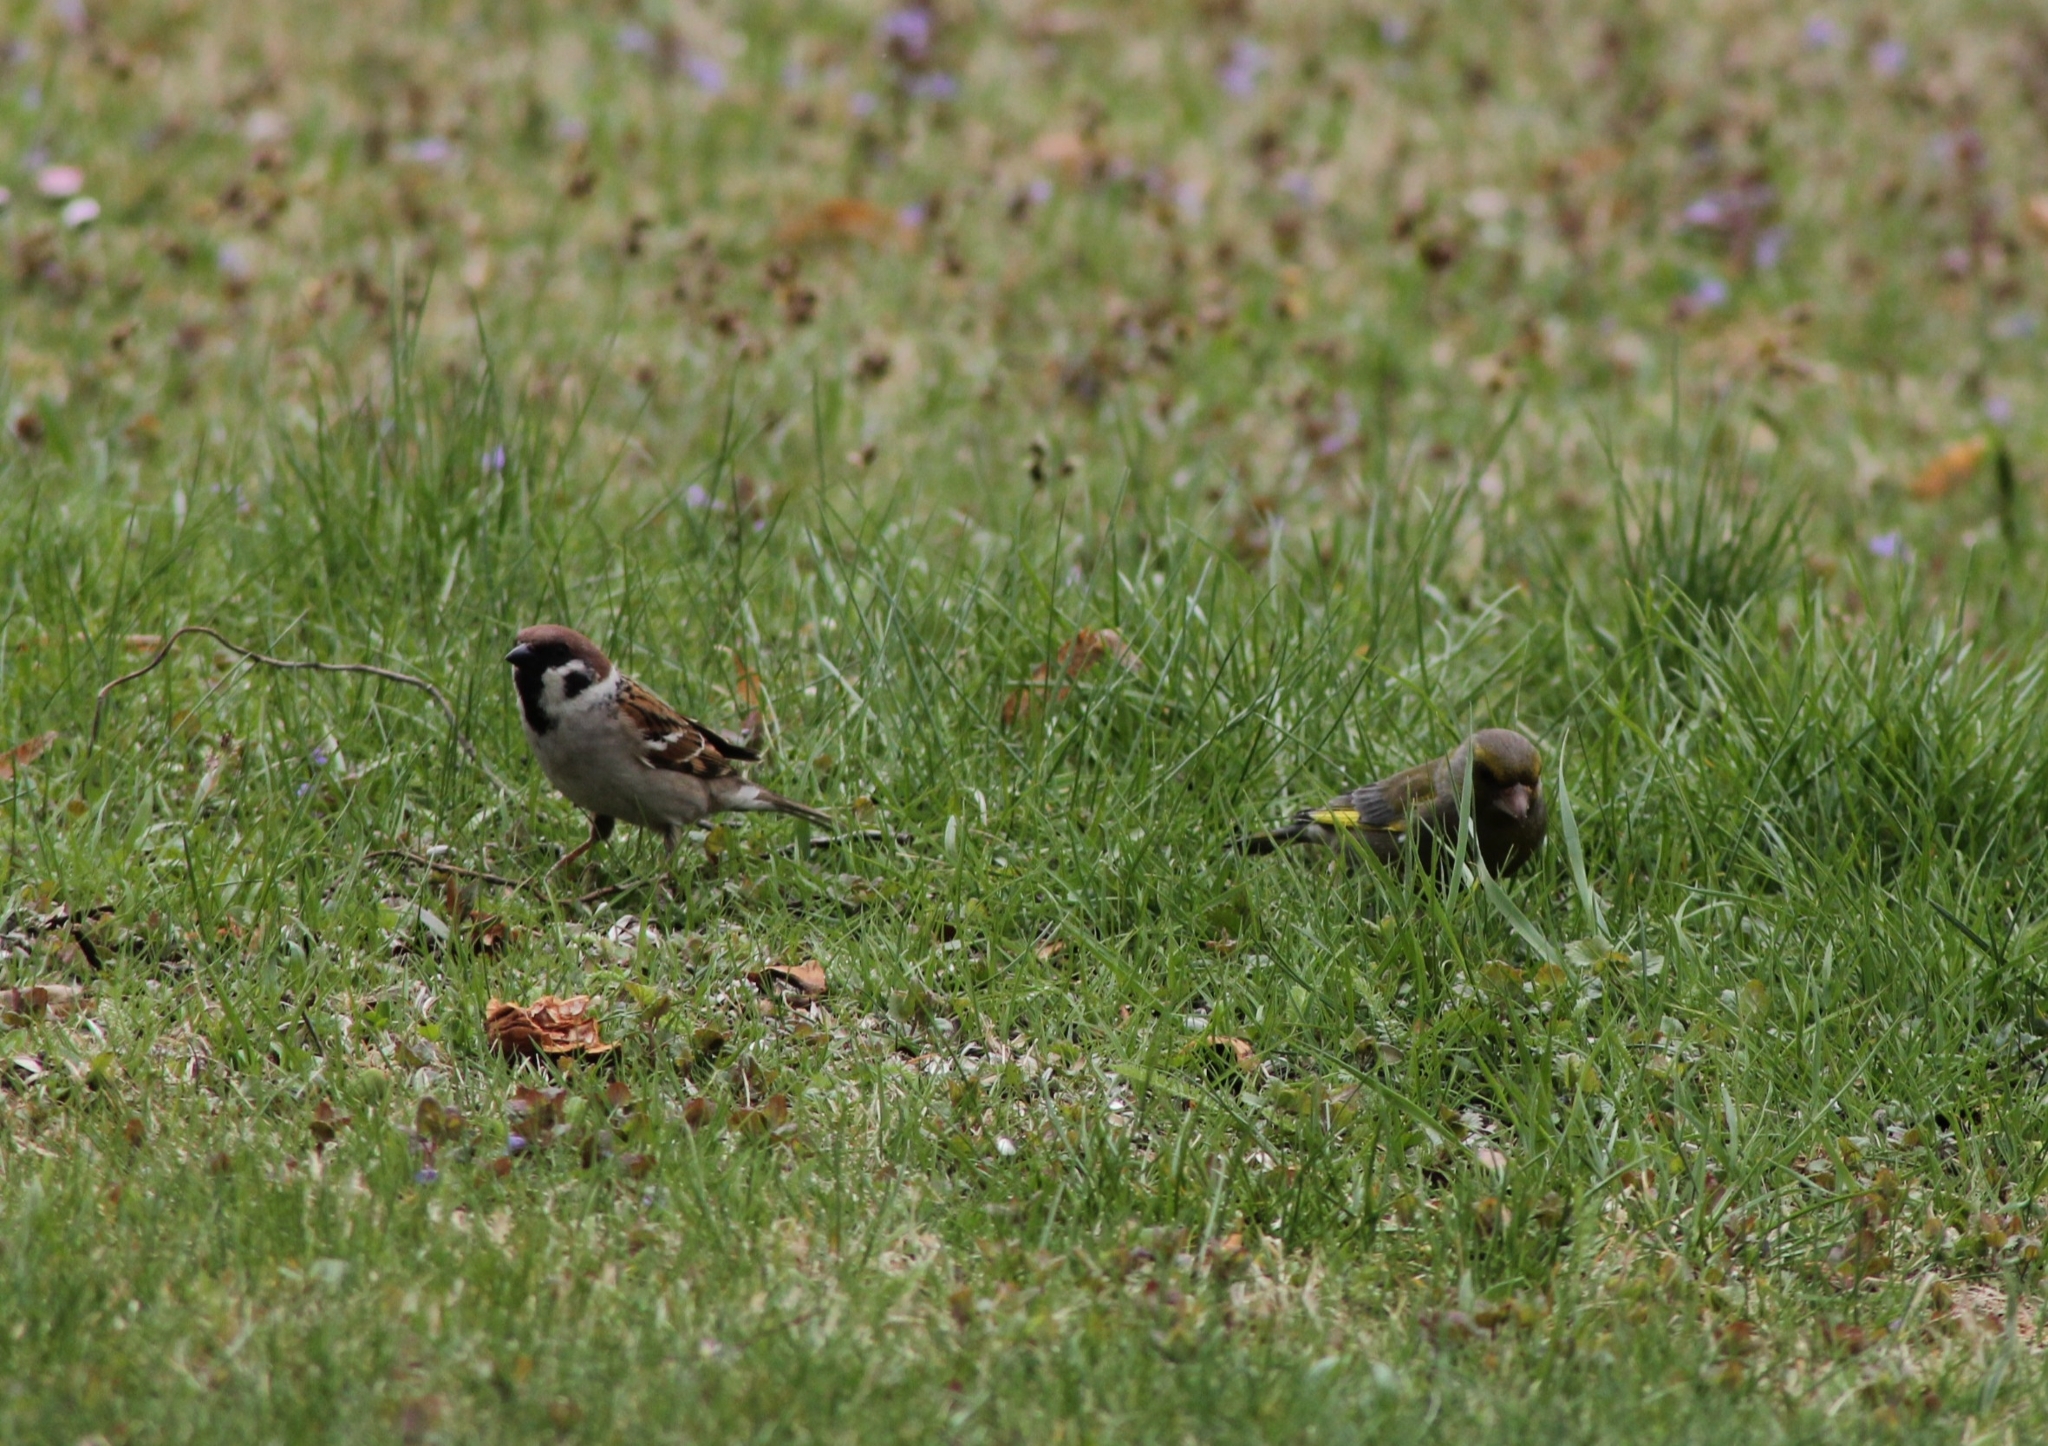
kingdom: Animalia
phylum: Chordata
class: Aves
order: Passeriformes
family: Passeridae
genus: Passer
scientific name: Passer montanus
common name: Eurasian tree sparrow
